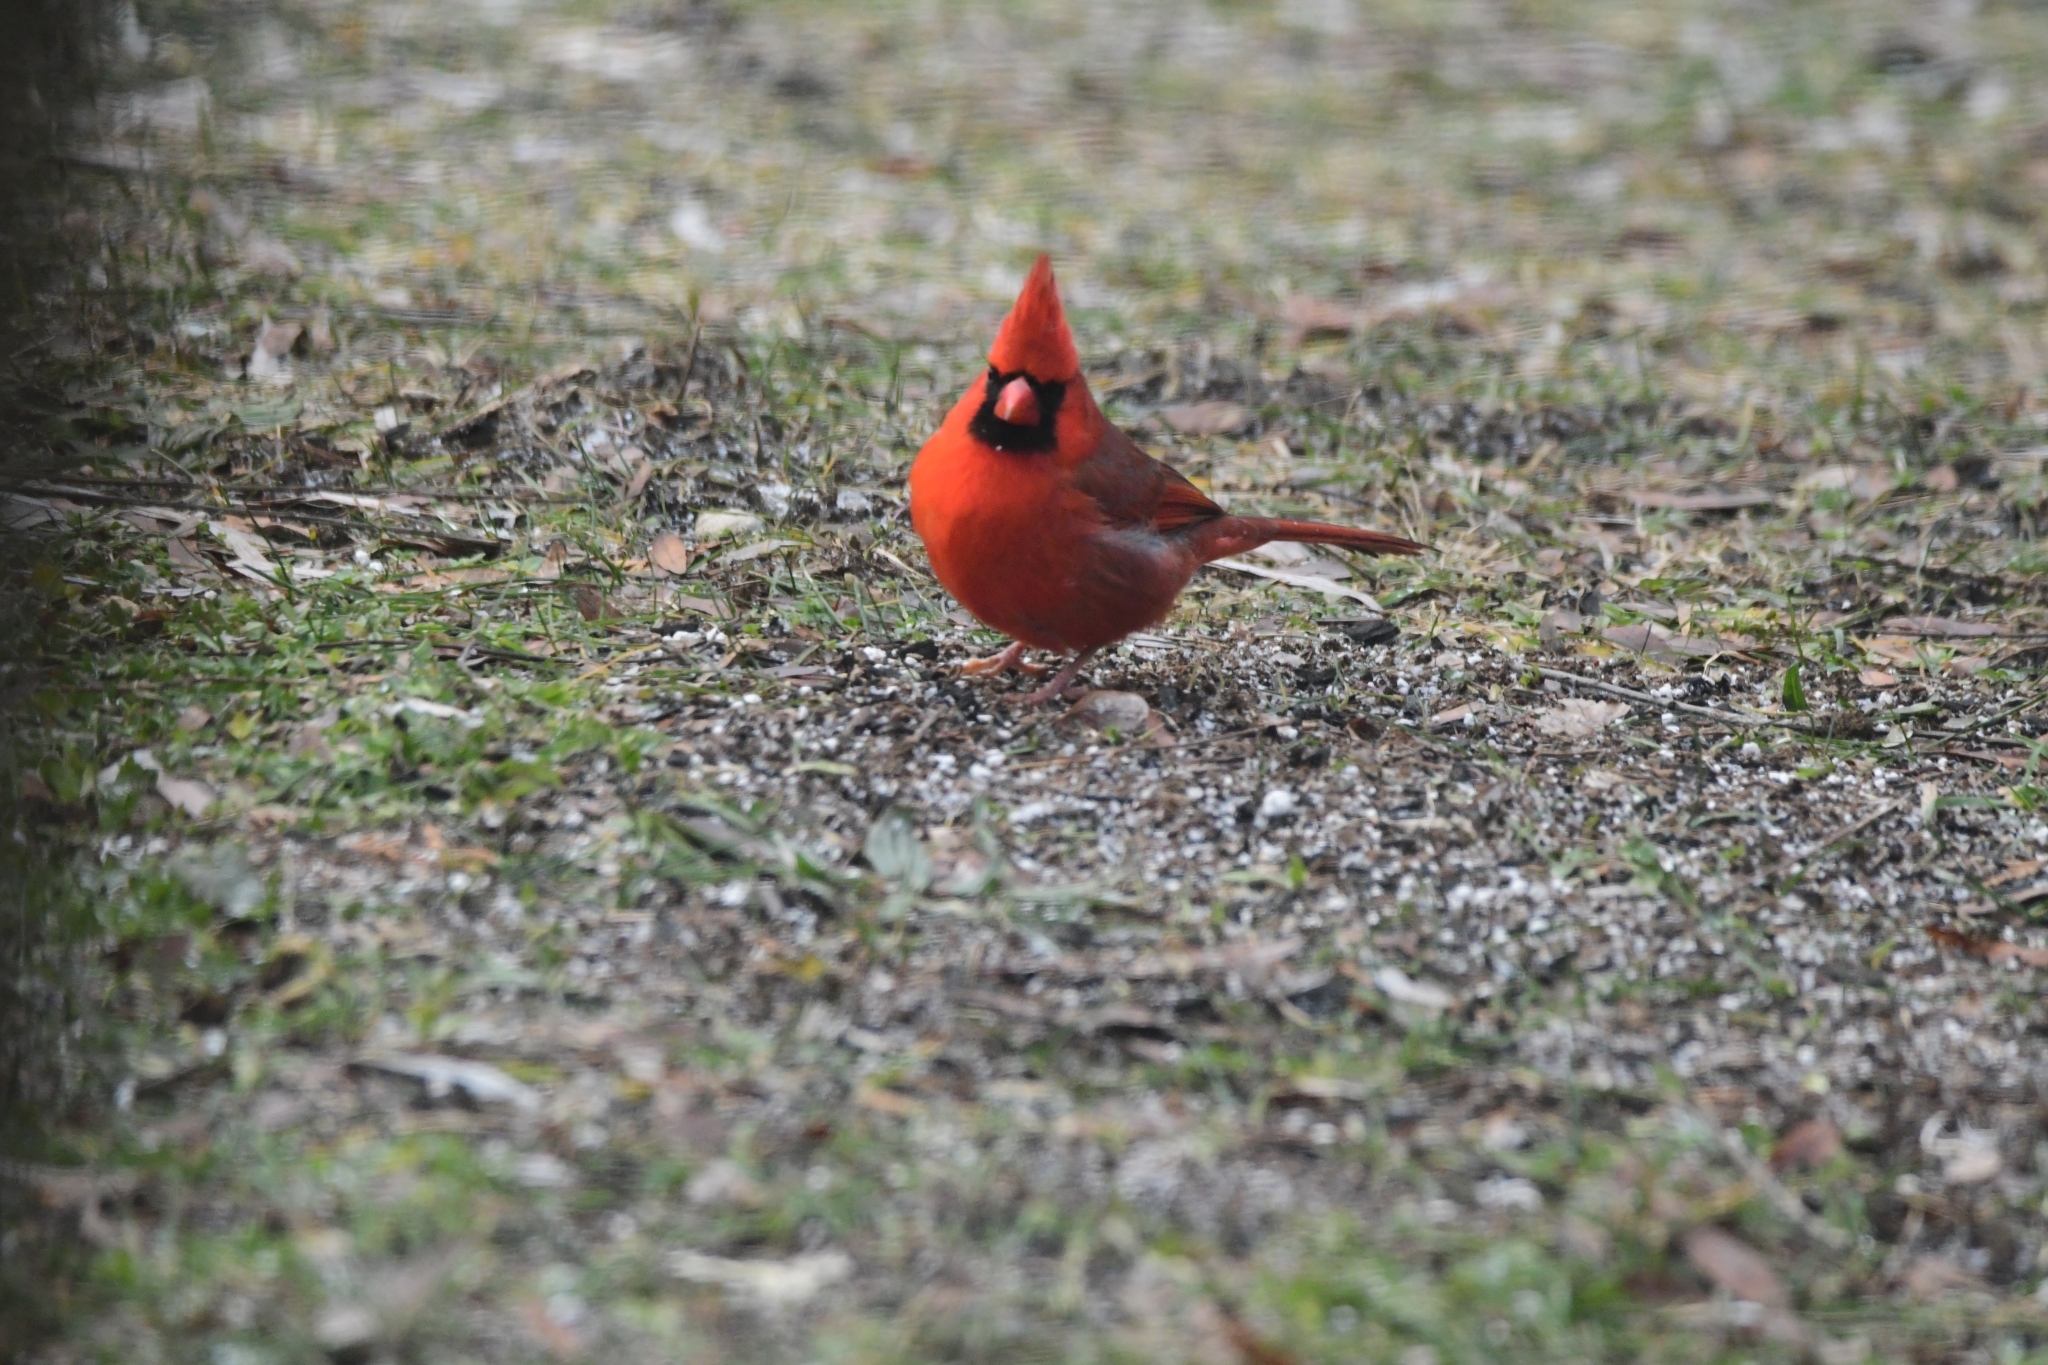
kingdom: Animalia
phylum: Chordata
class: Aves
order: Passeriformes
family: Cardinalidae
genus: Cardinalis
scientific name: Cardinalis cardinalis
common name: Northern cardinal
